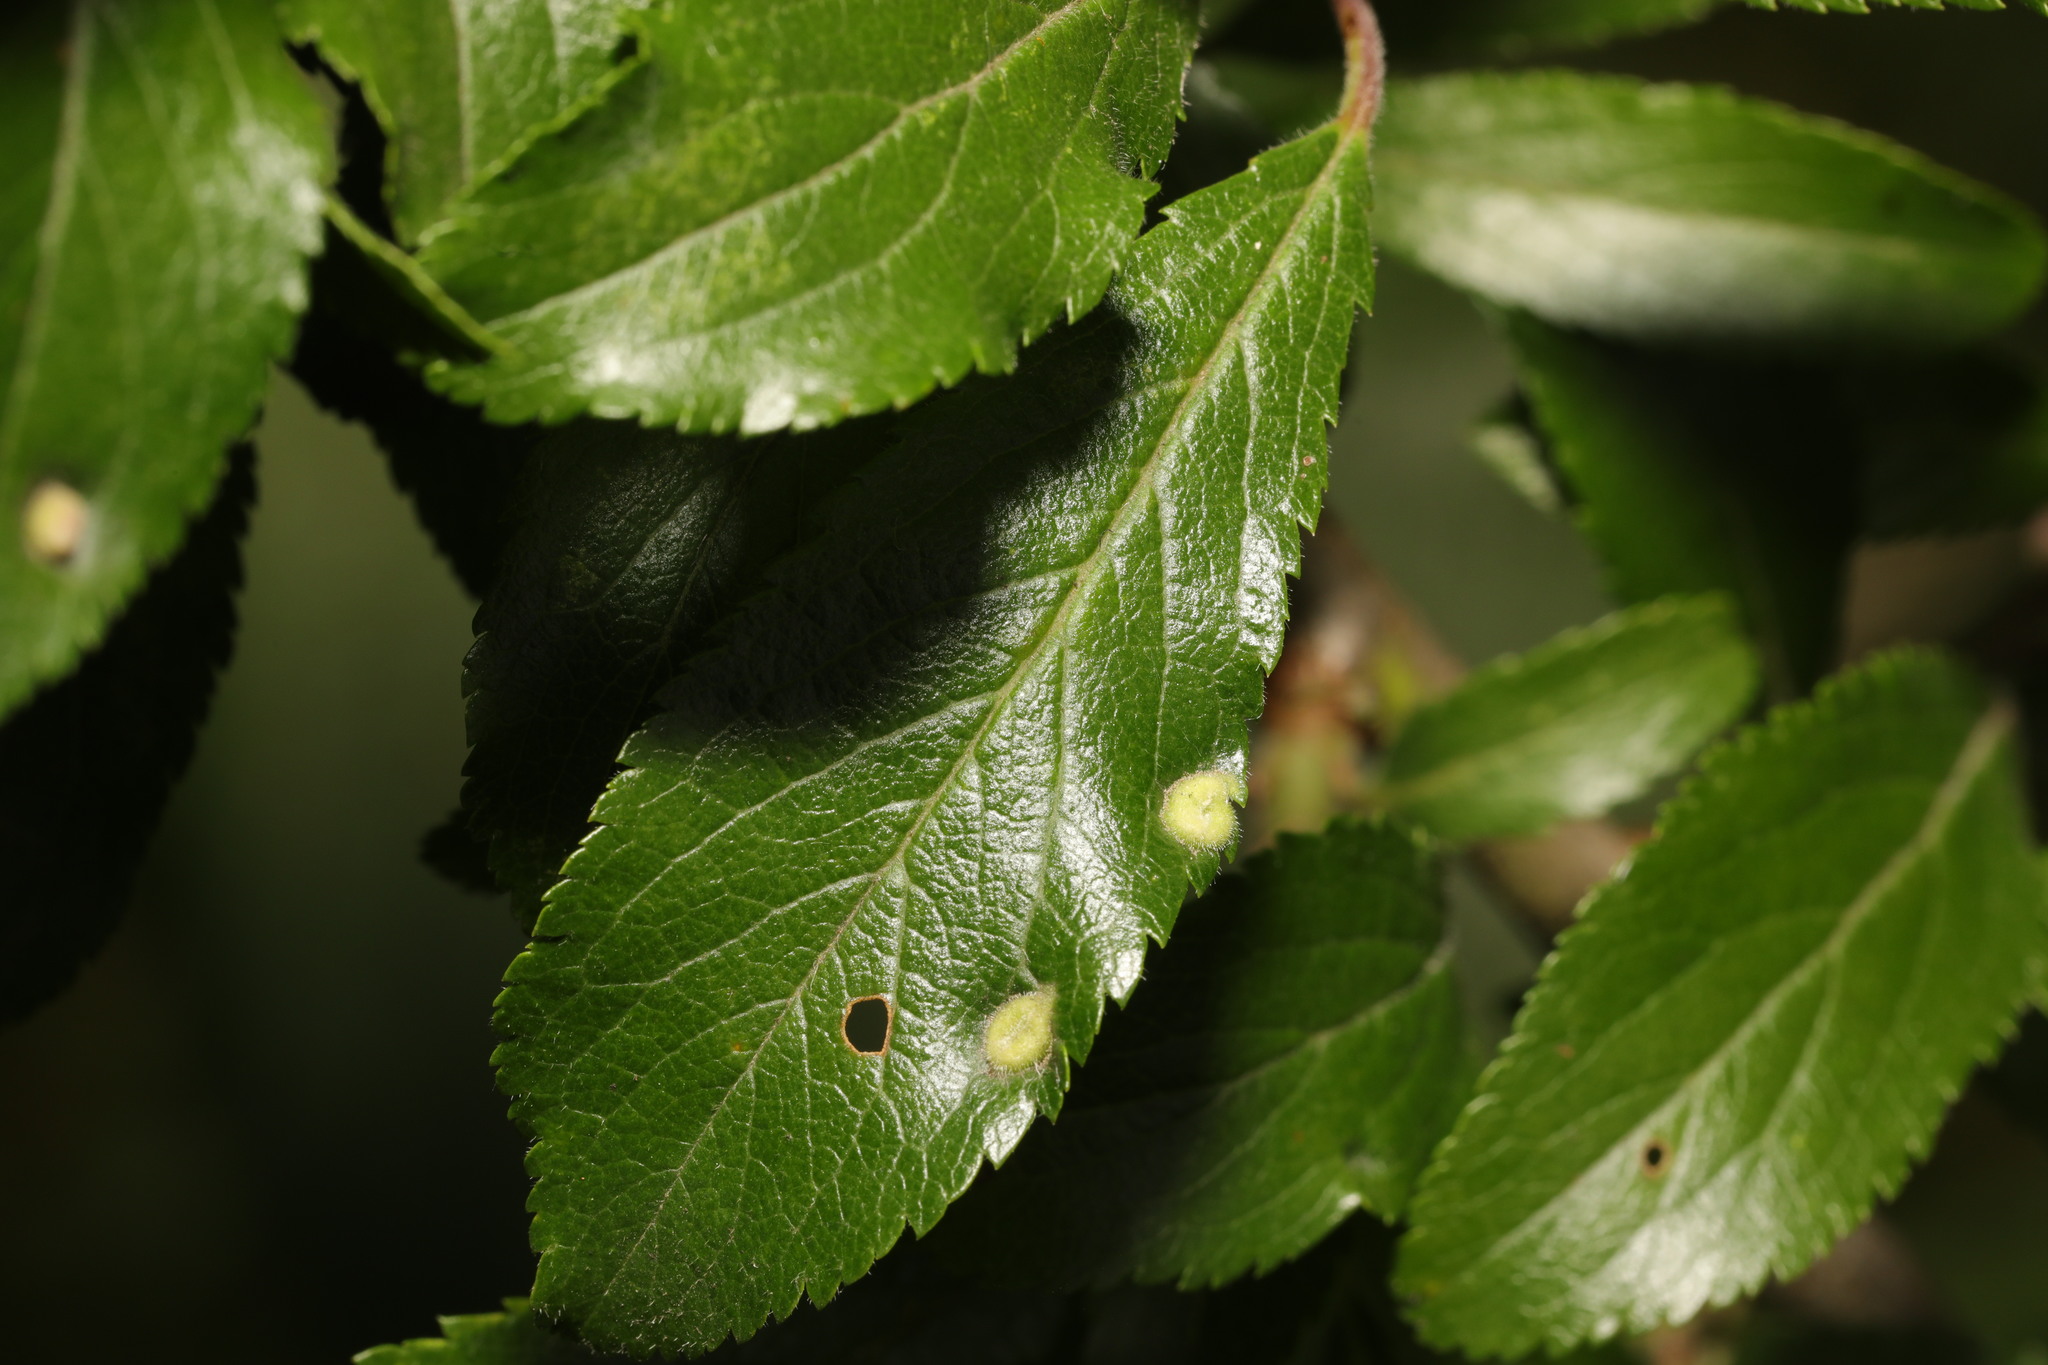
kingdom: Animalia
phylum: Arthropoda
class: Arachnida
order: Trombidiformes
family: Eriophyidae
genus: Eriophyes
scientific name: Eriophyes similis
